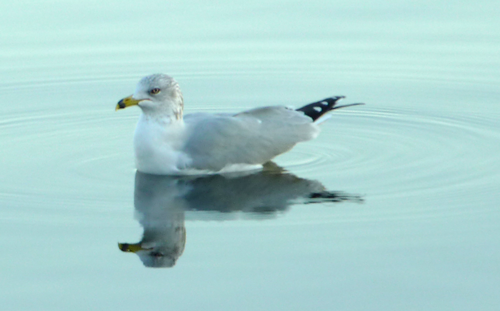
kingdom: Animalia
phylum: Chordata
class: Aves
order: Charadriiformes
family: Laridae
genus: Larus
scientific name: Larus delawarensis
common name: Ring-billed gull
